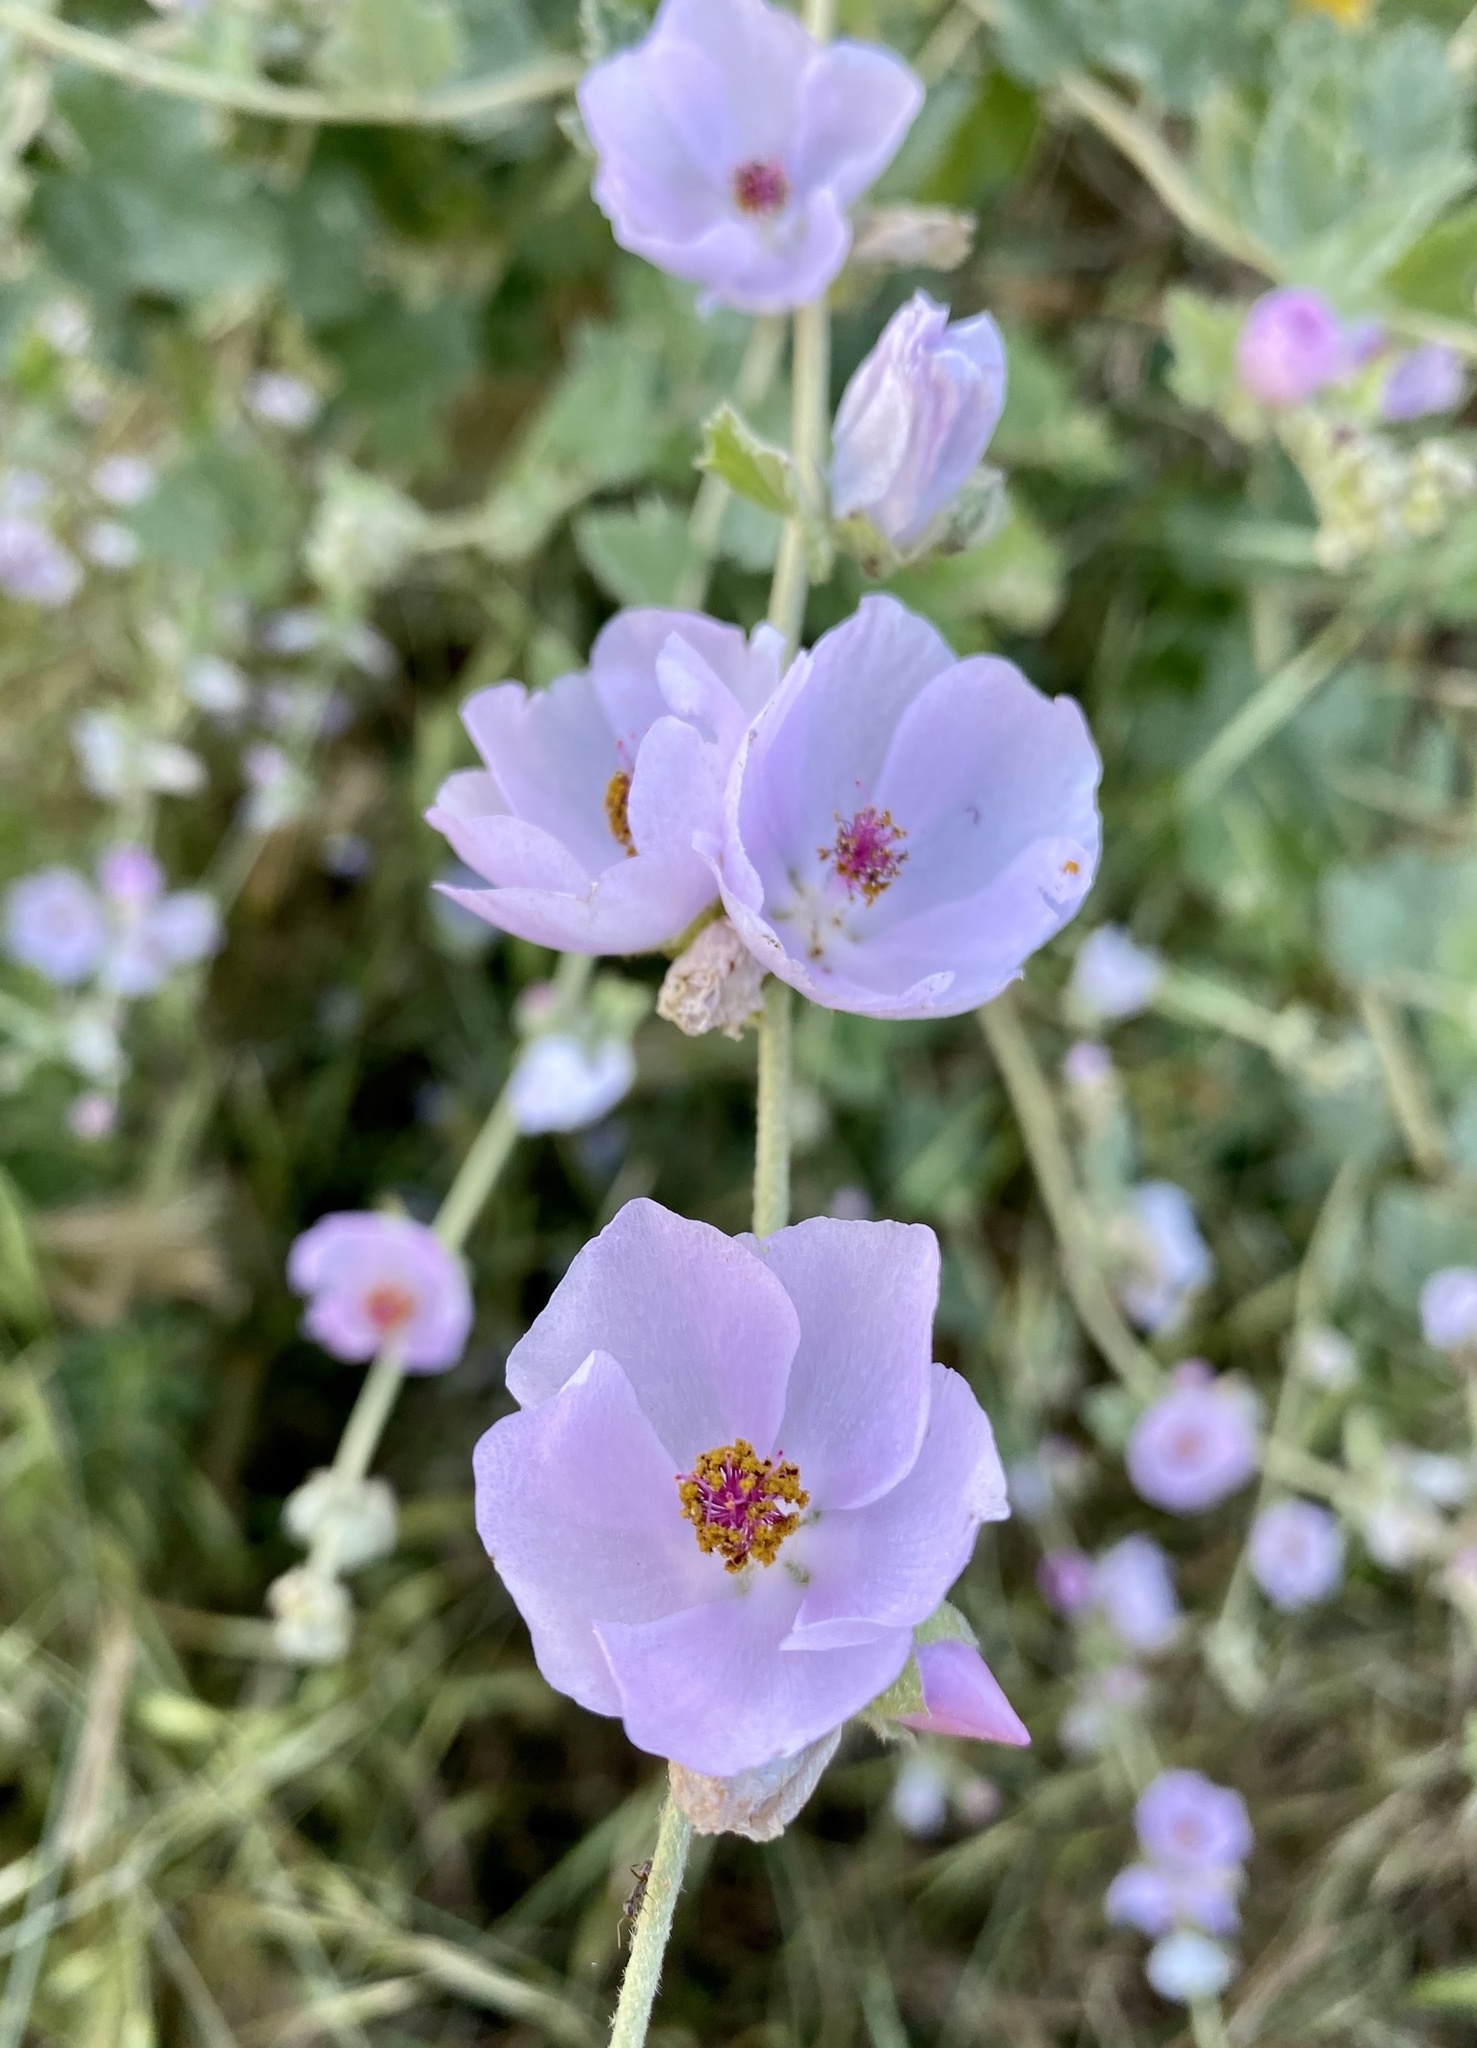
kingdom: Plantae
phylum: Tracheophyta
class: Magnoliopsida
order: Malvales
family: Malvaceae
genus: Malacothamnus
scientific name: Malacothamnus fasciculatus
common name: Sant cruz island bush-mallow
